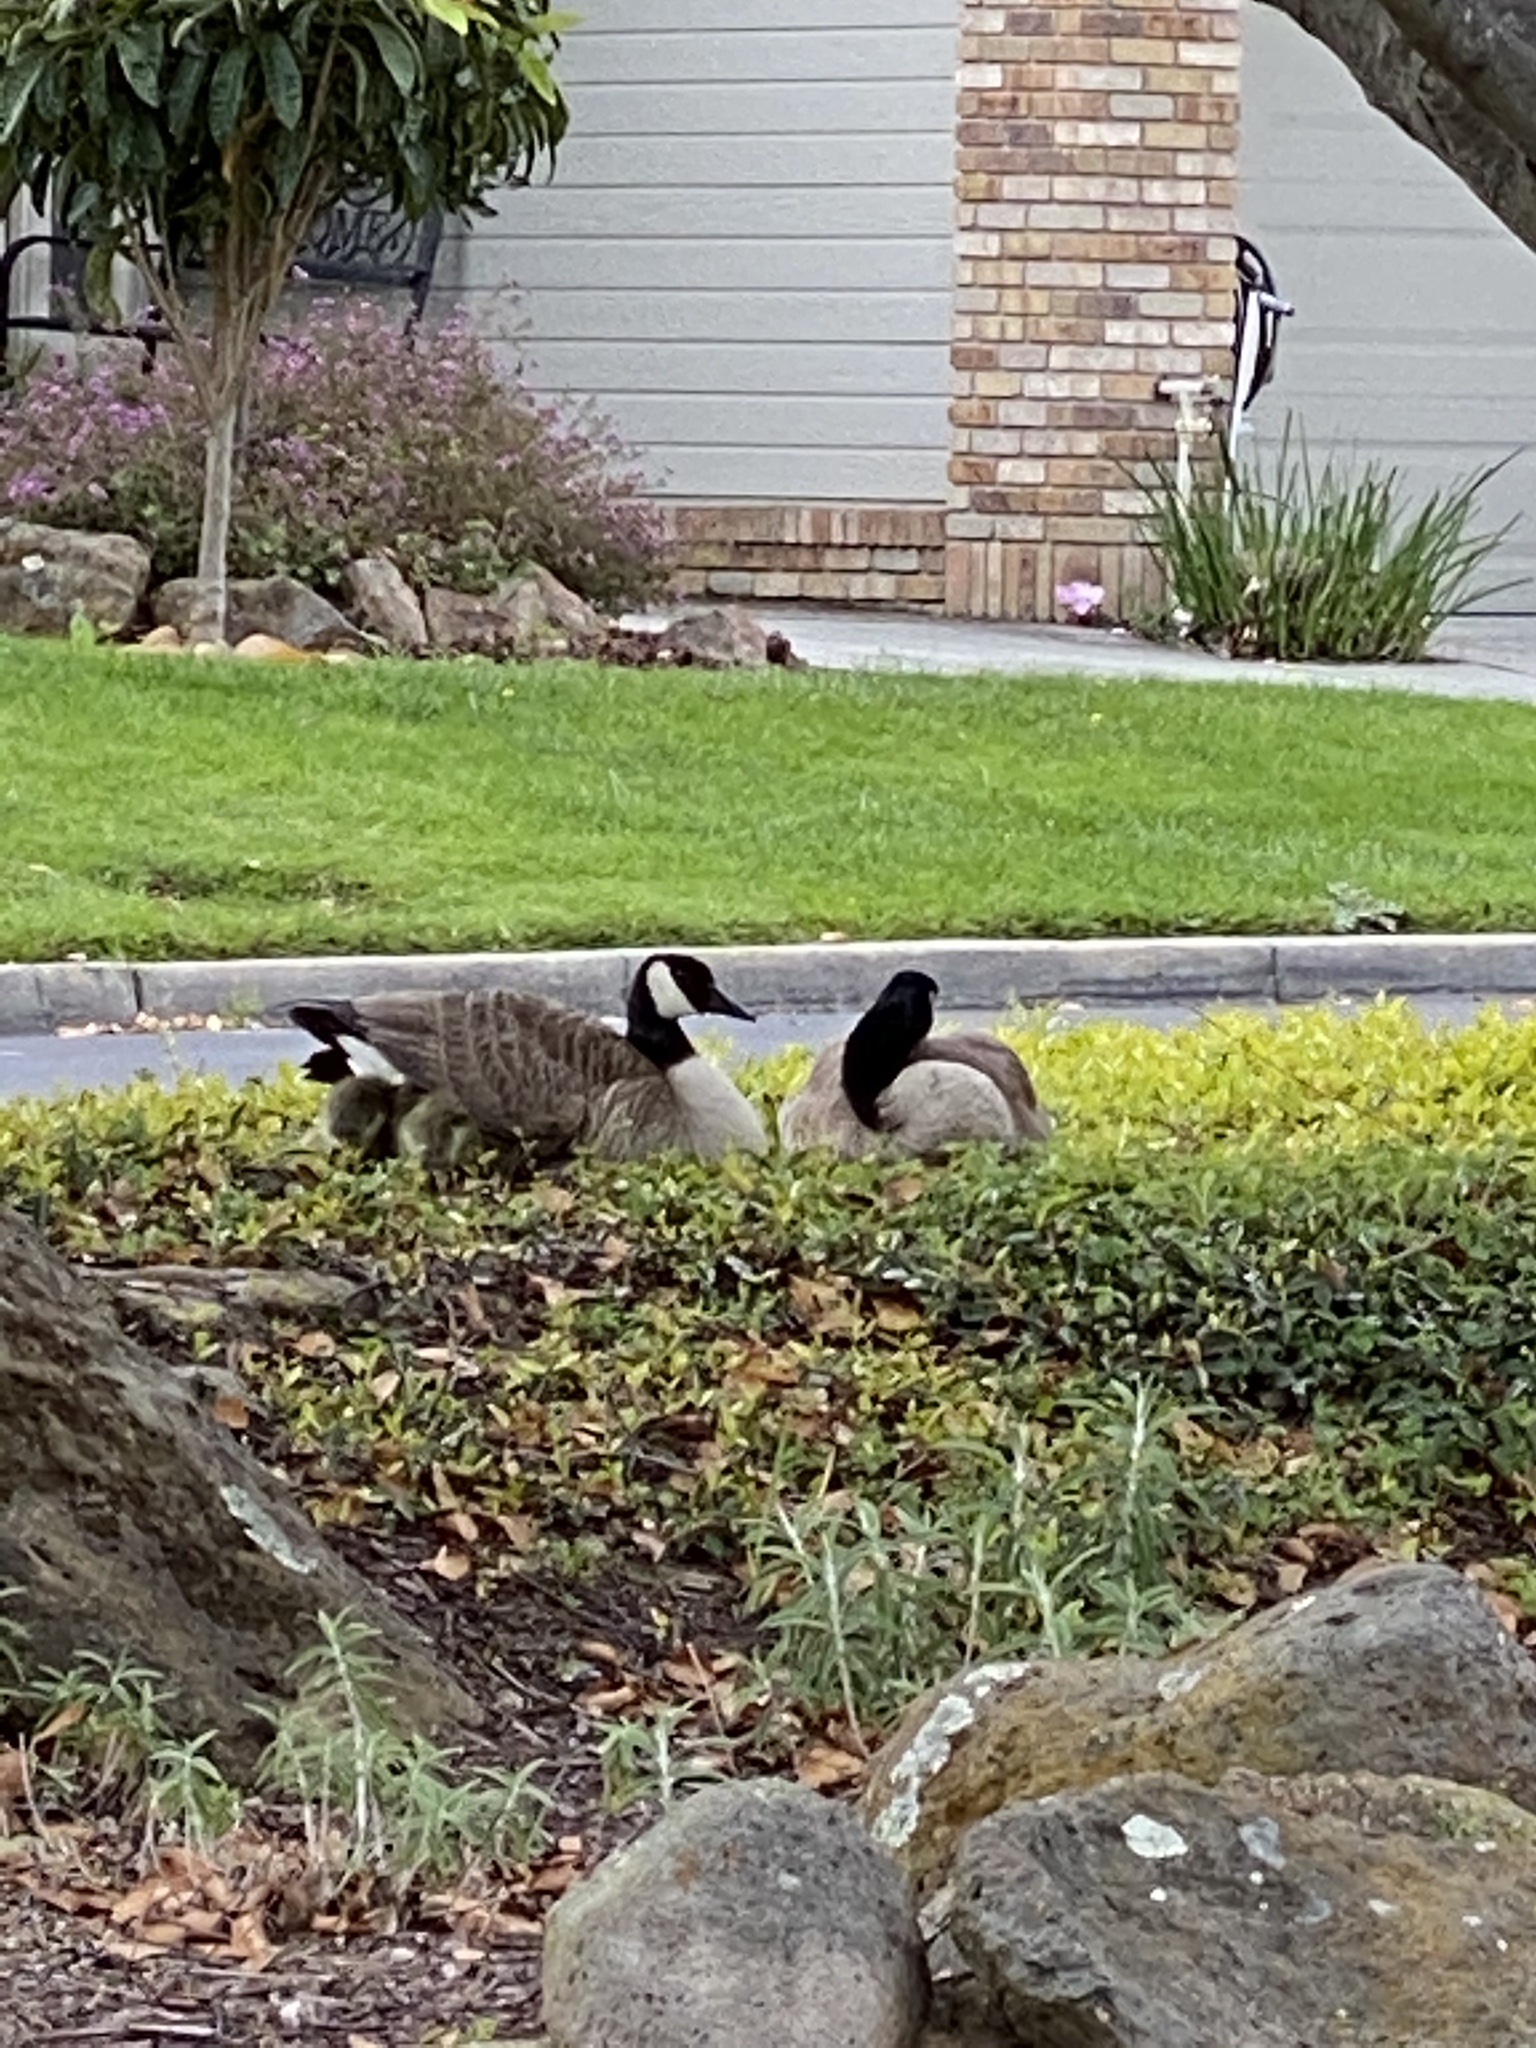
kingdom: Animalia
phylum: Chordata
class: Aves
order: Anseriformes
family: Anatidae
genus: Branta
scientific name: Branta canadensis
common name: Canada goose
